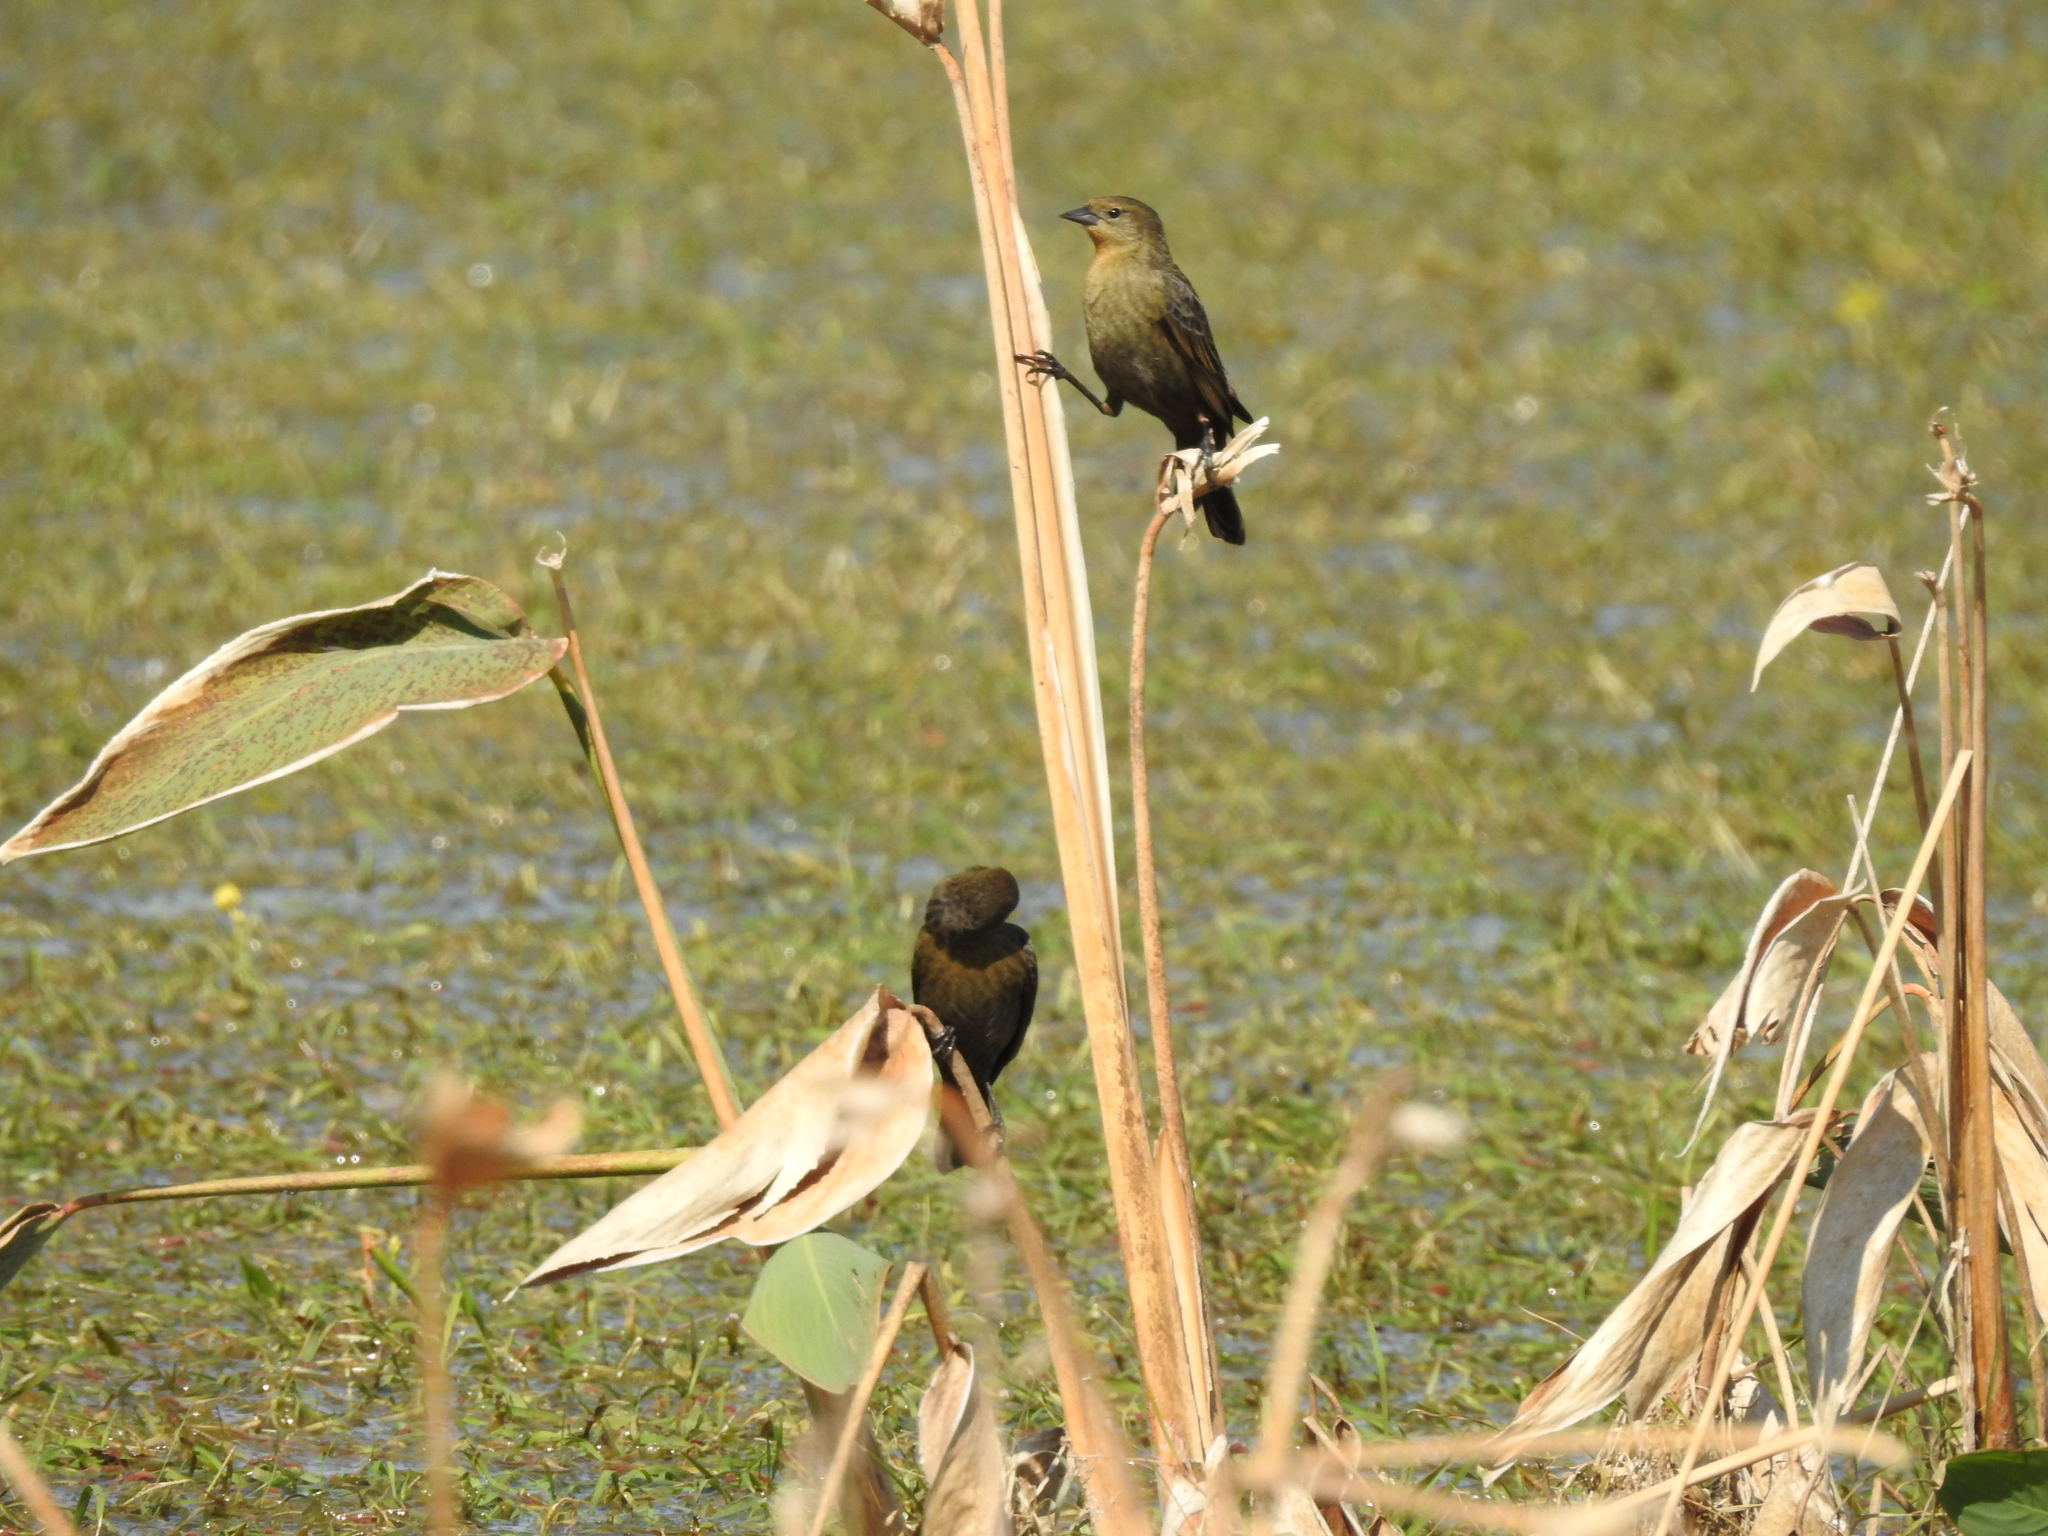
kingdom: Animalia
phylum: Chordata
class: Aves
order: Passeriformes
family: Icteridae
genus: Chrysomus
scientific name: Chrysomus ruficapillus
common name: Chestnut-capped blackbird
